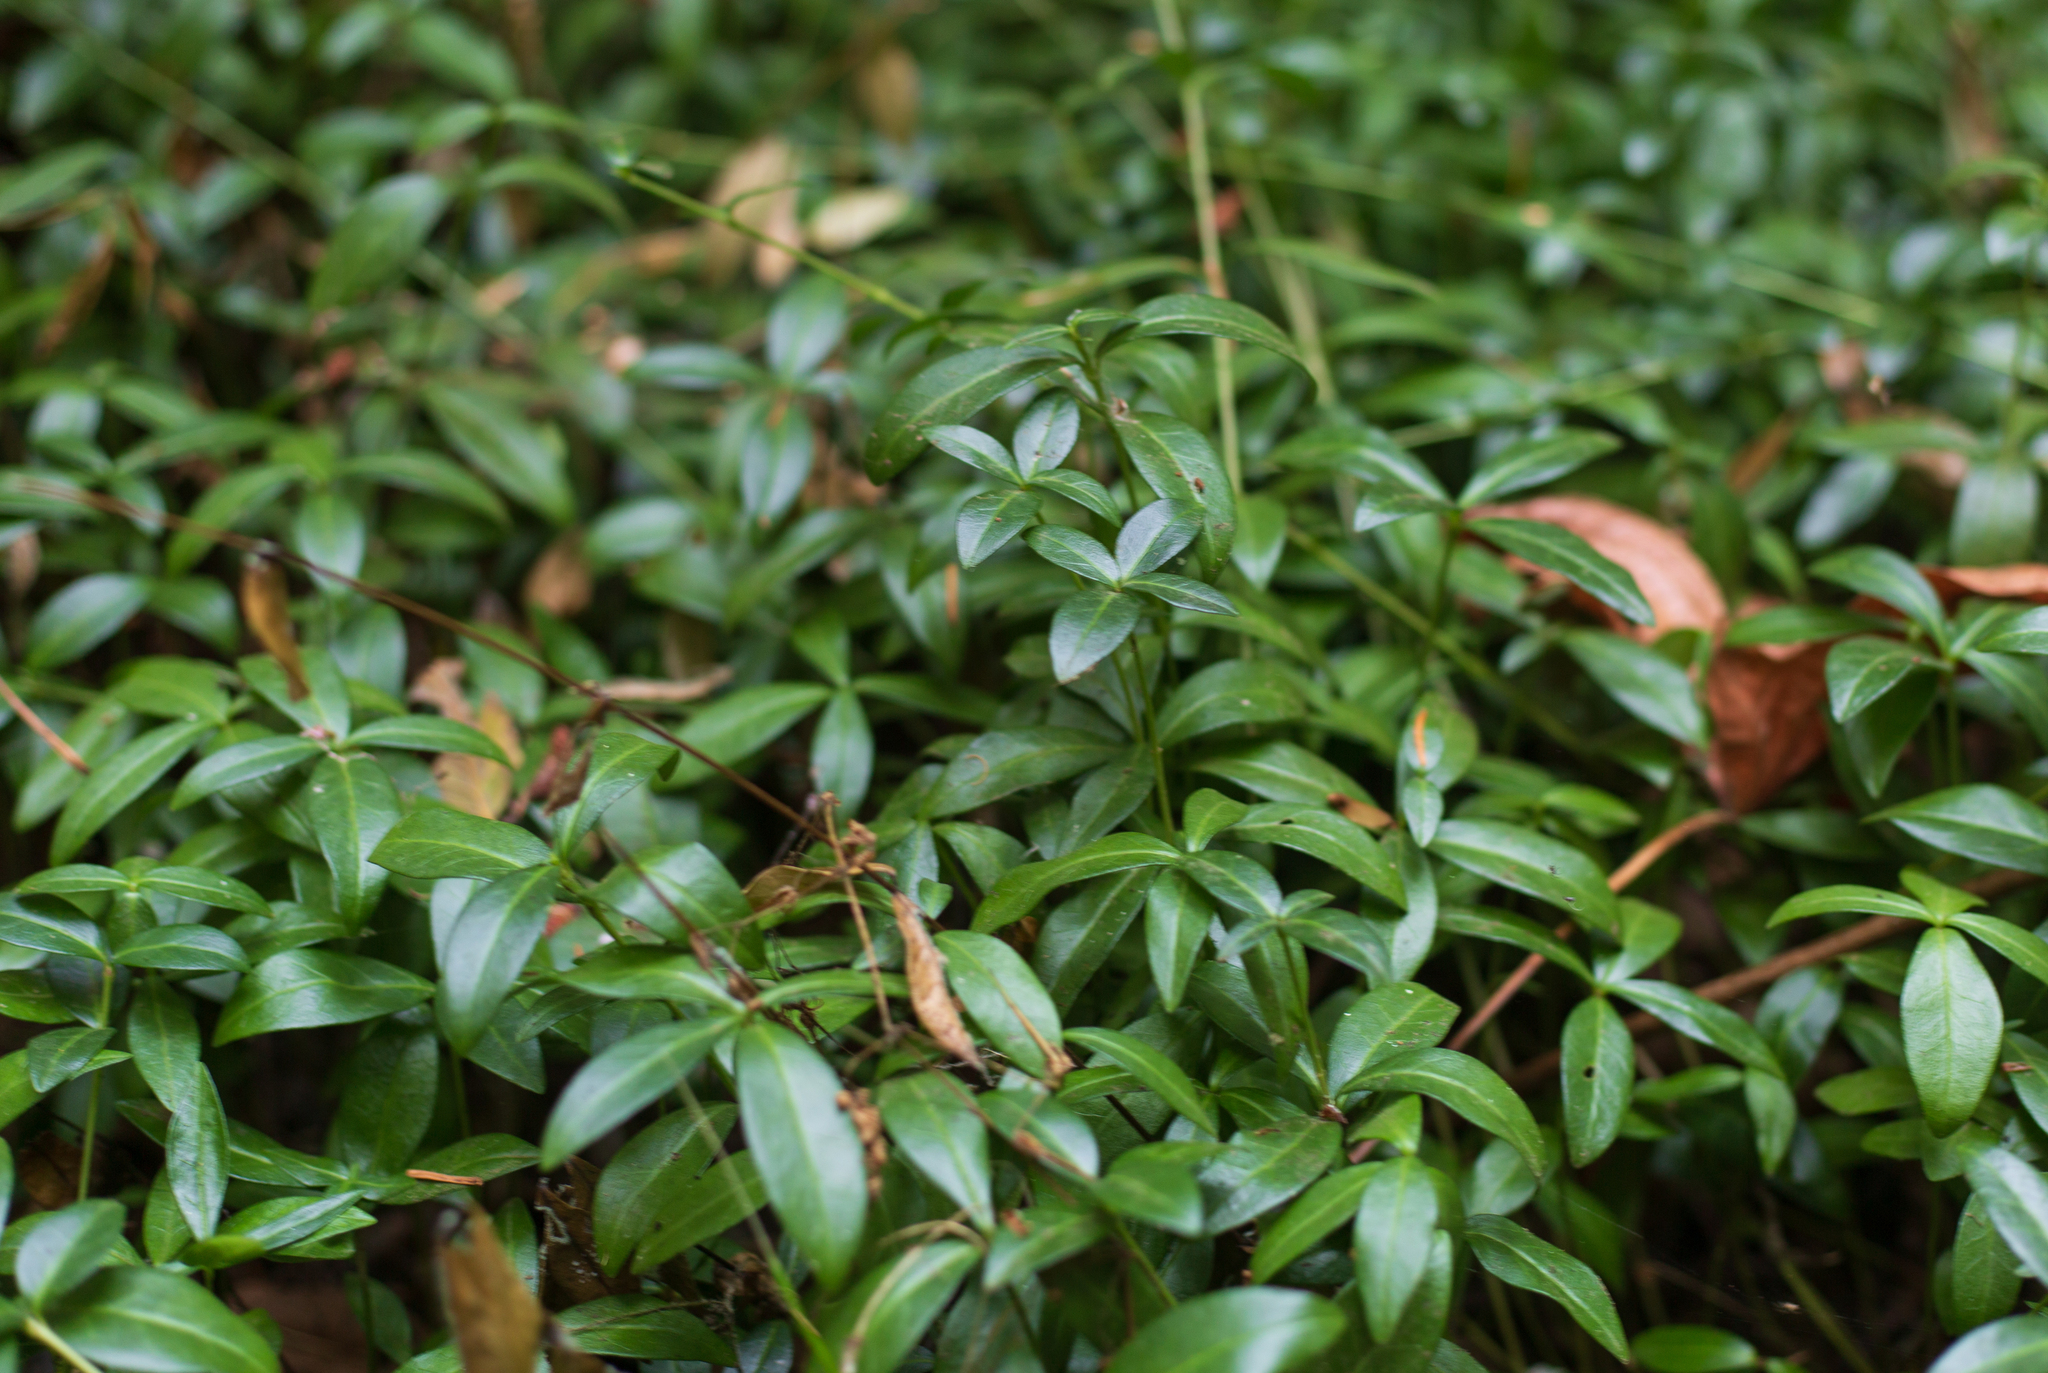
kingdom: Plantae
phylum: Tracheophyta
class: Magnoliopsida
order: Gentianales
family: Apocynaceae
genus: Vinca
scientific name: Vinca minor
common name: Lesser periwinkle
